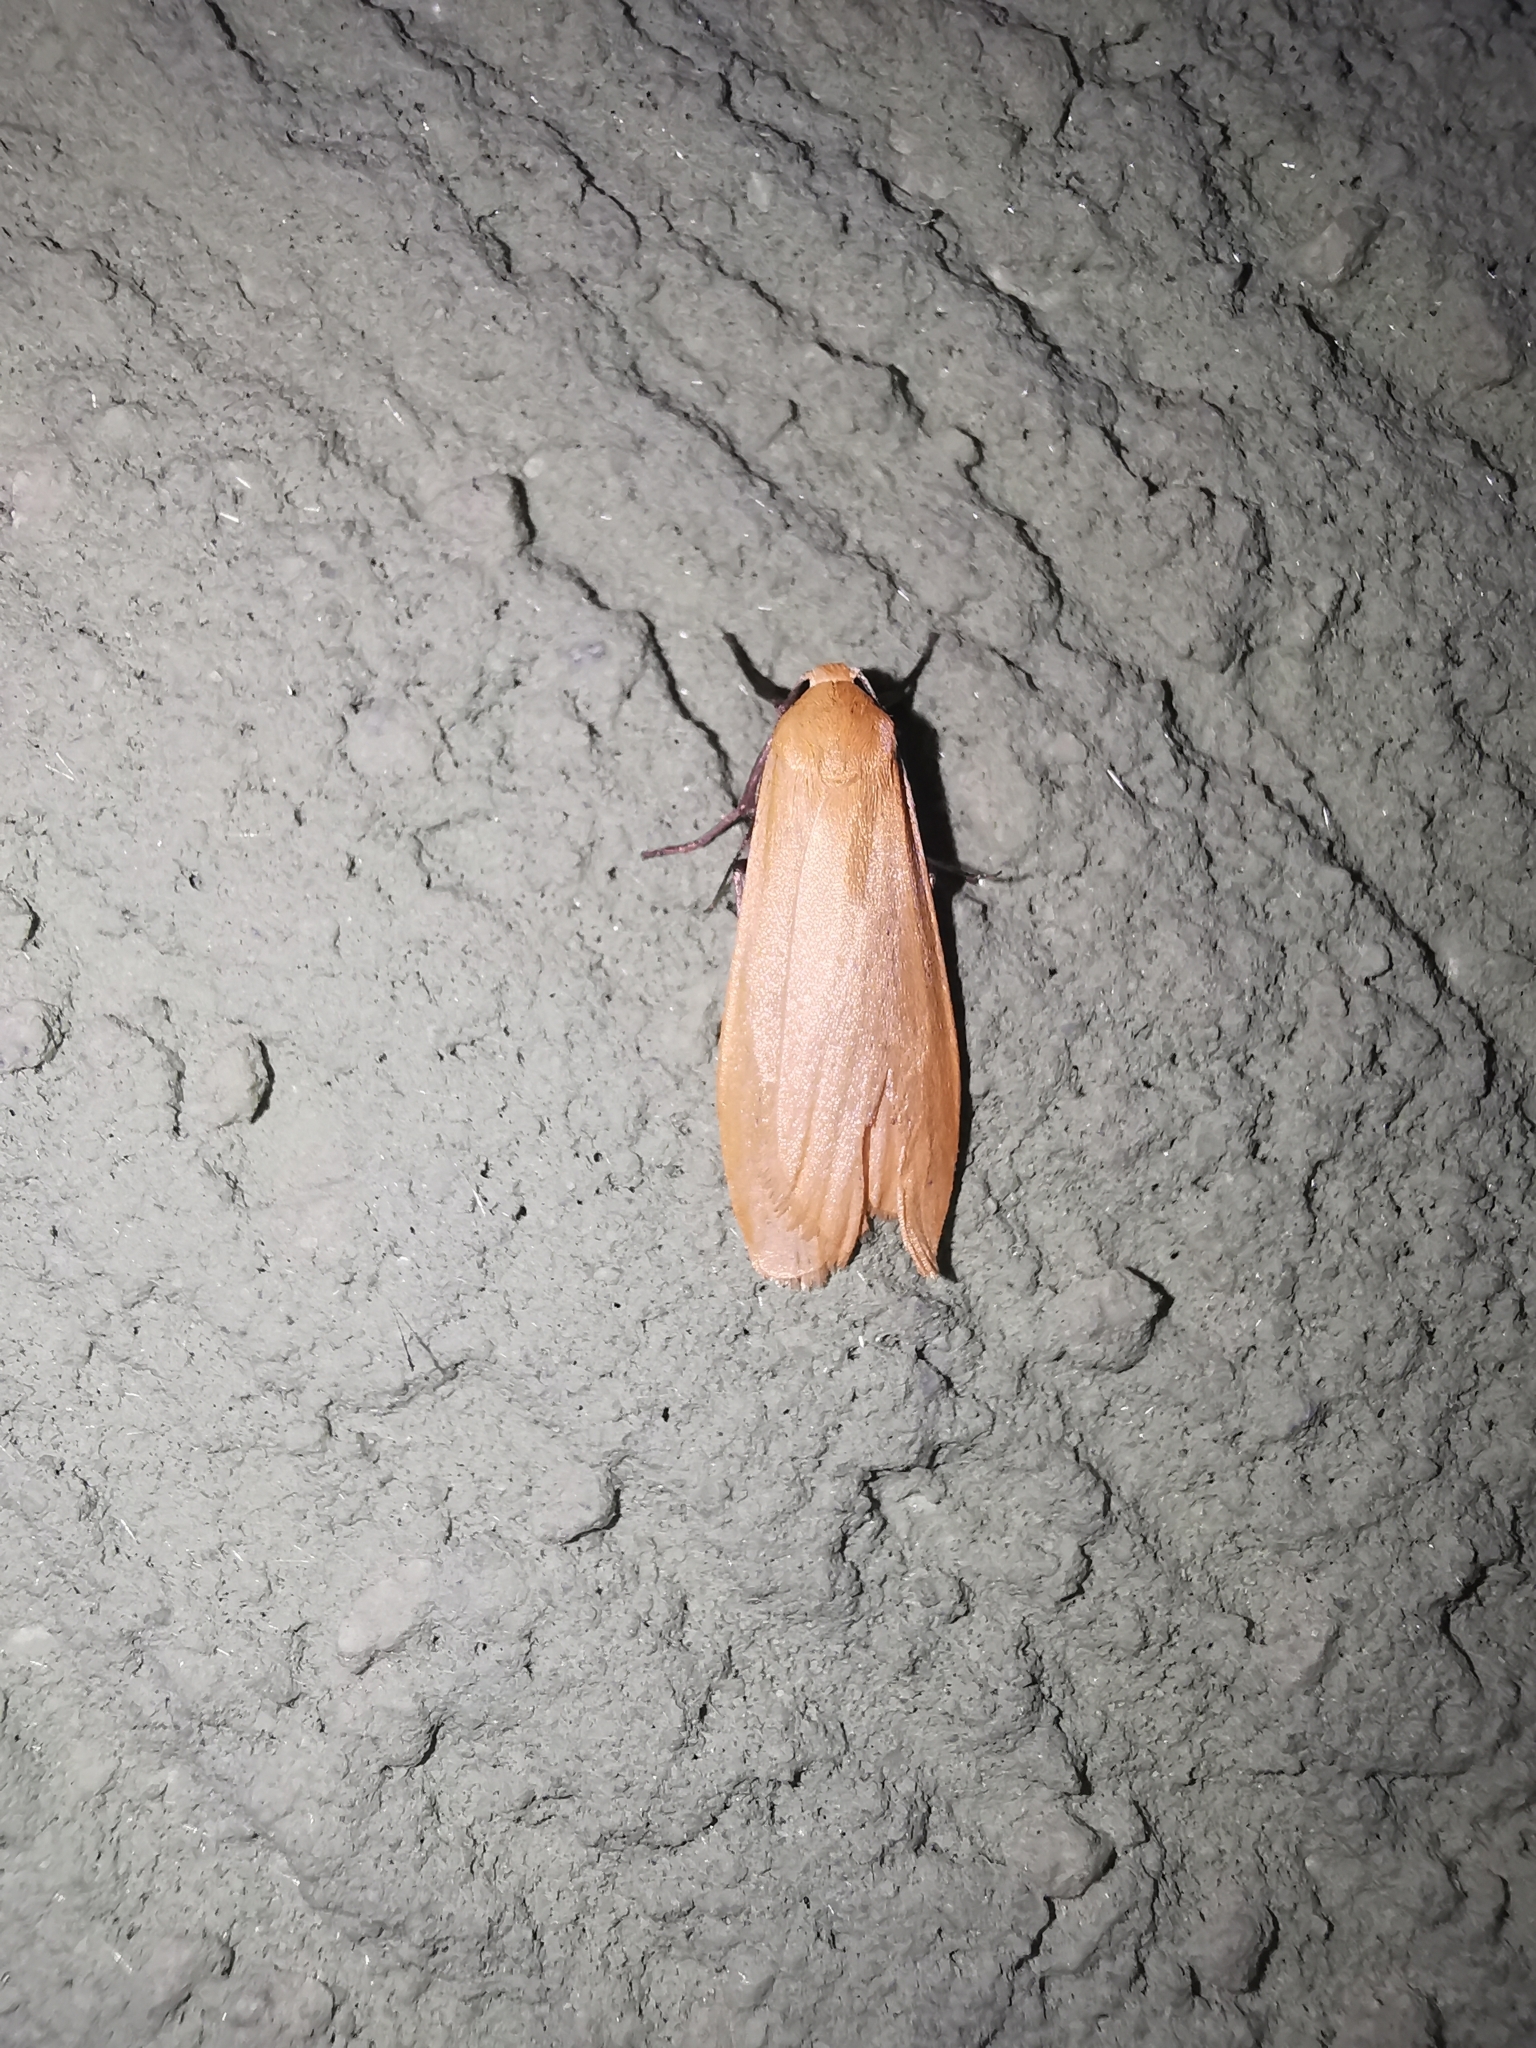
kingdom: Animalia
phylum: Arthropoda
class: Insecta
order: Lepidoptera
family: Erebidae
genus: Wittia
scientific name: Wittia sororcula
